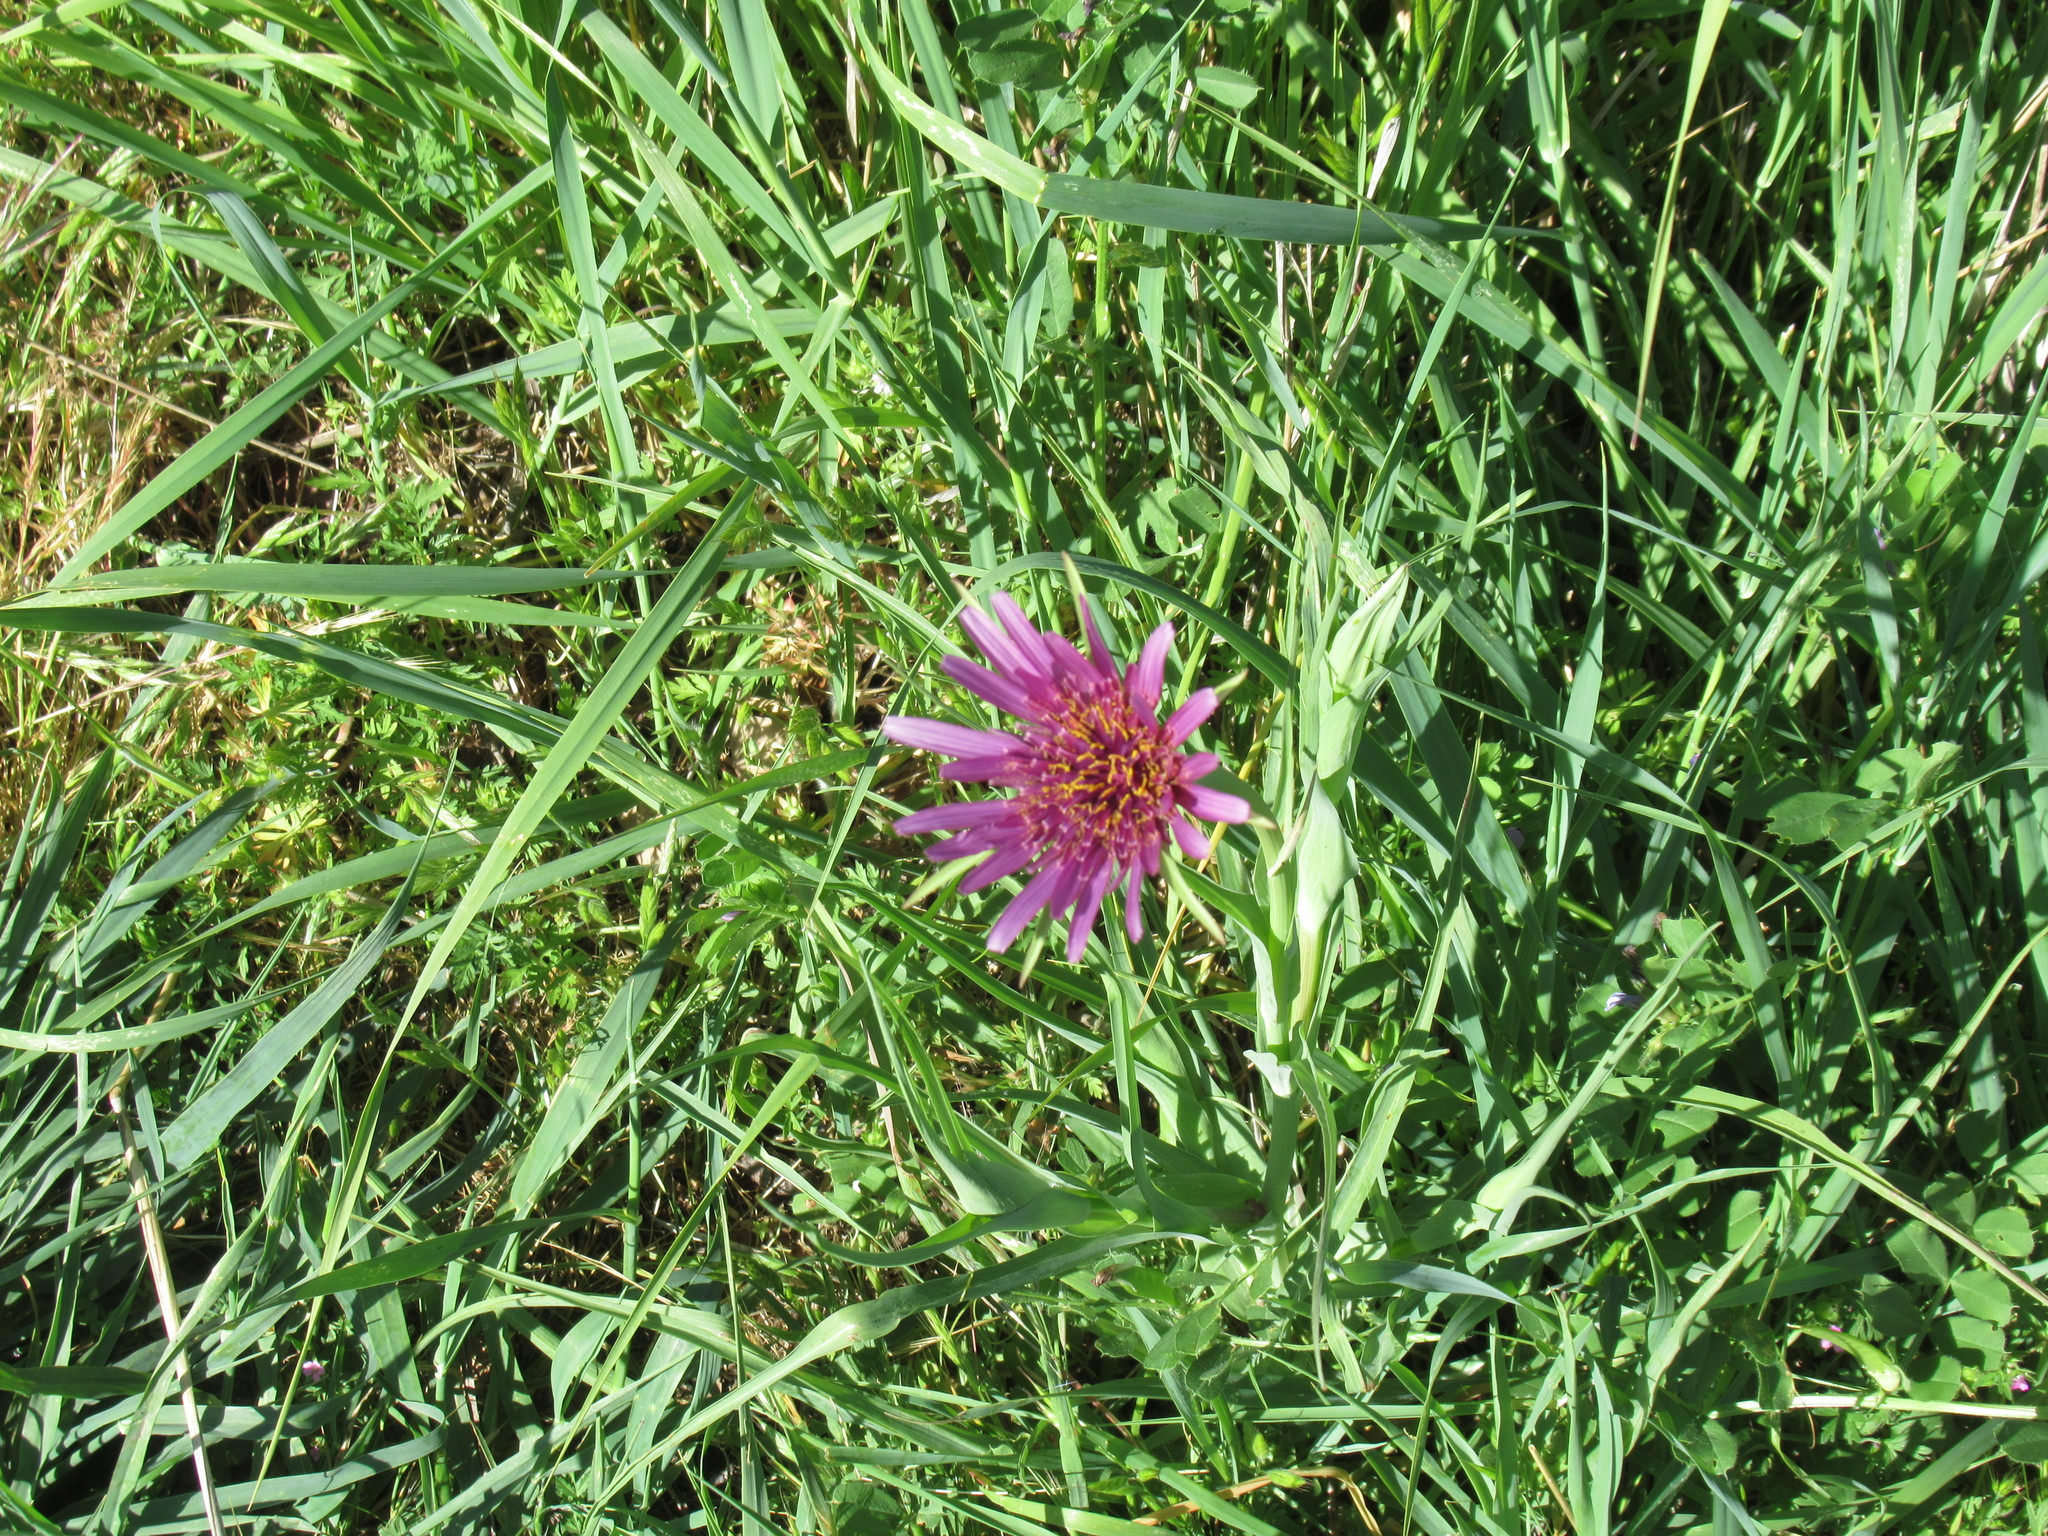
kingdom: Plantae
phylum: Tracheophyta
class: Magnoliopsida
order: Asterales
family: Asteraceae
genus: Tragopogon
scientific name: Tragopogon porrifolius
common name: Salsify
